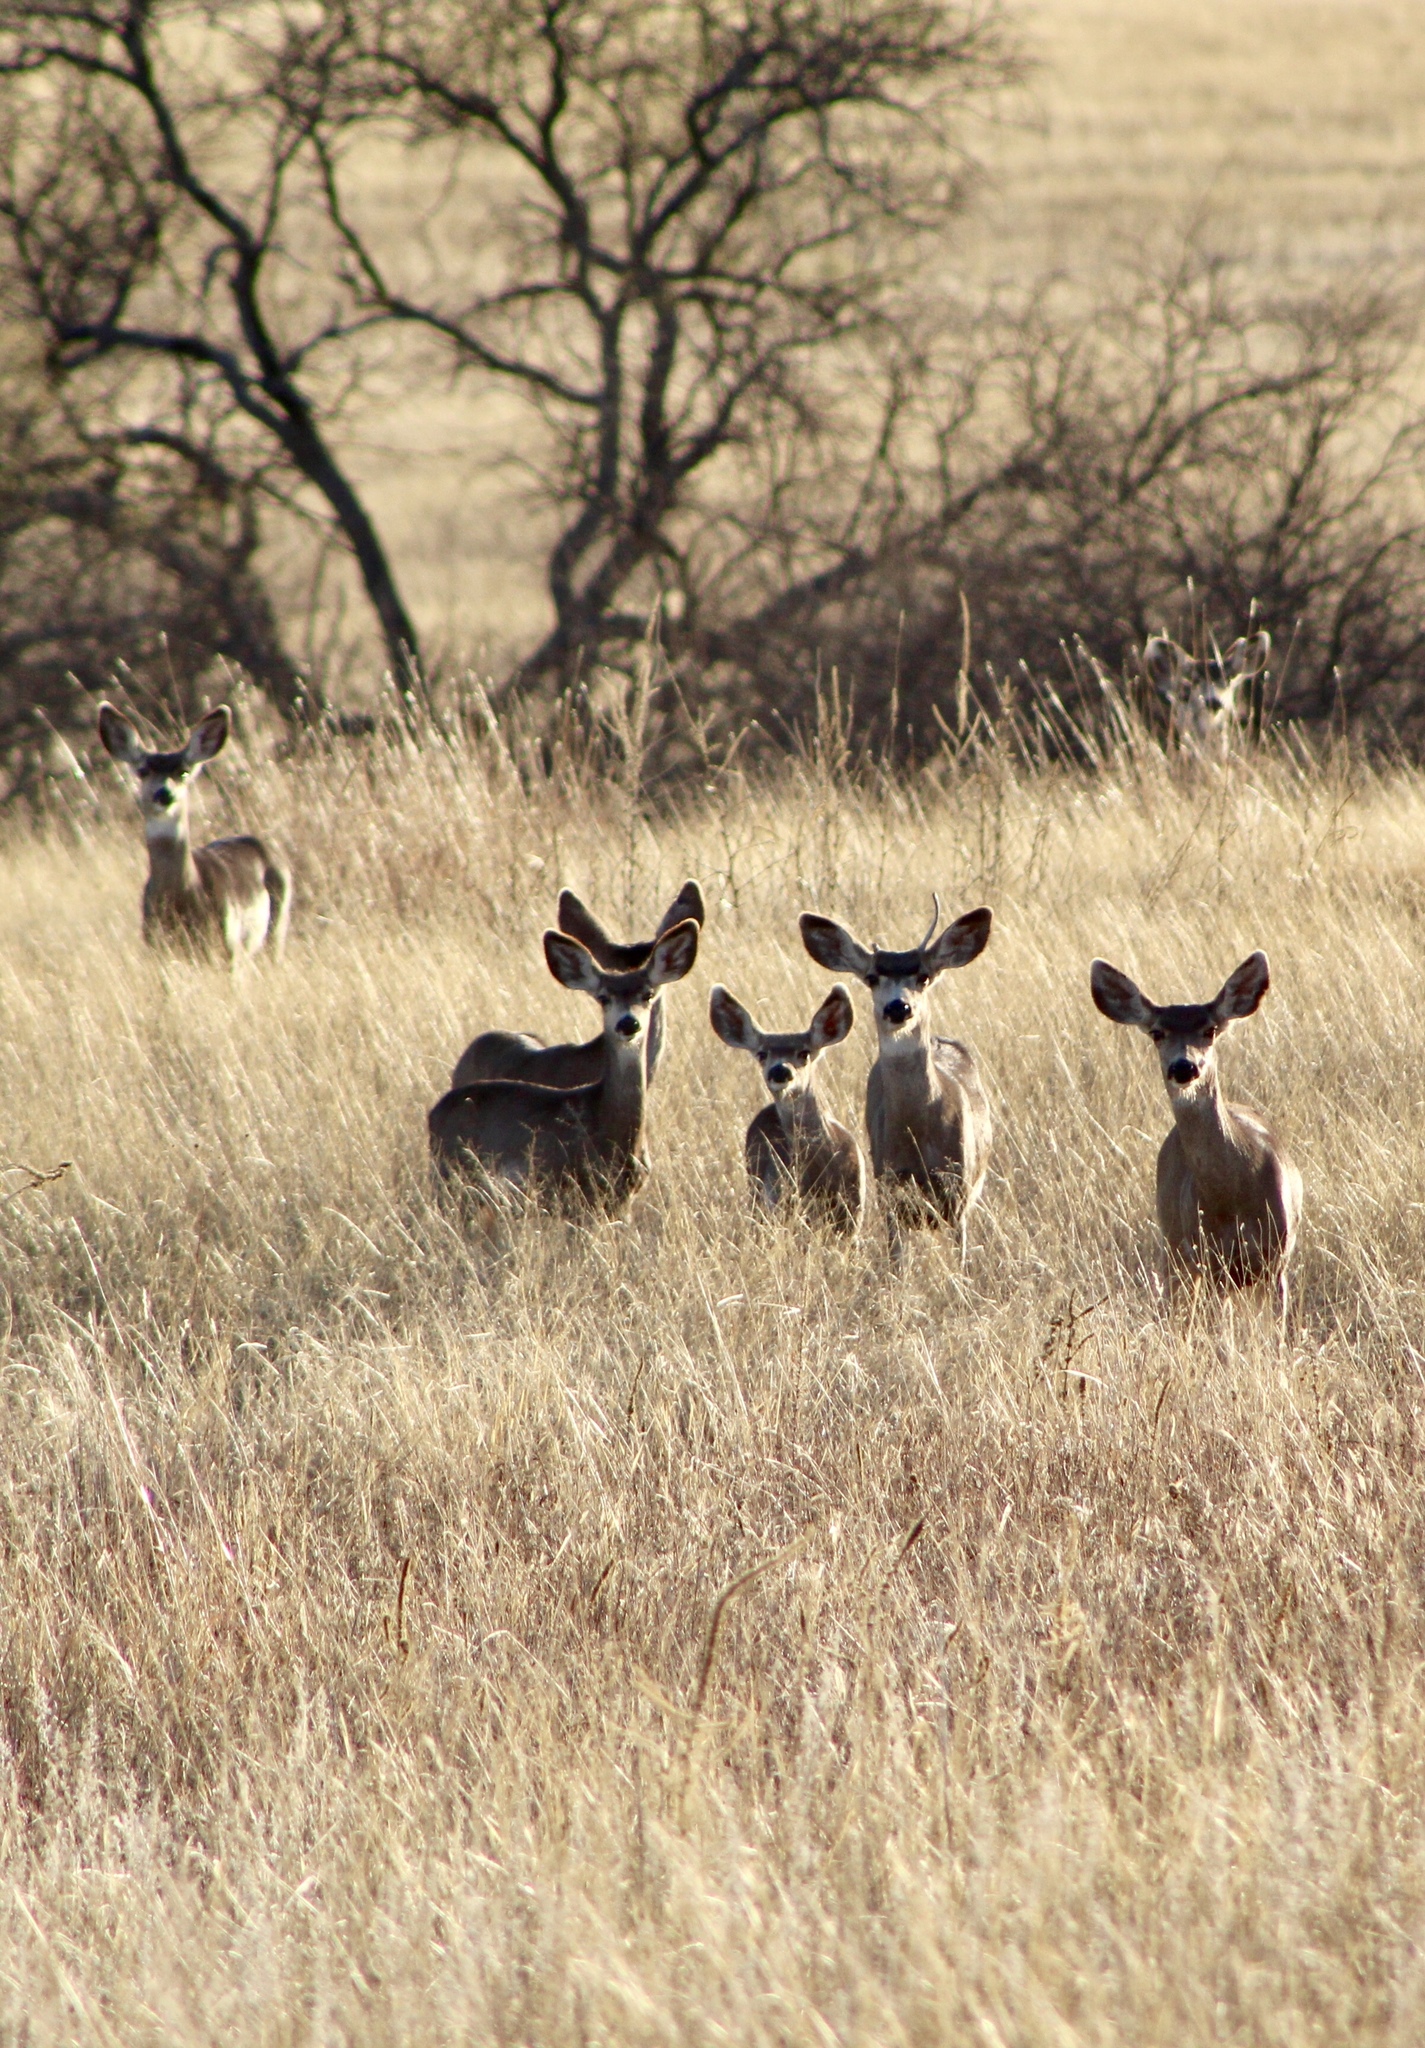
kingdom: Animalia
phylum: Chordata
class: Mammalia
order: Artiodactyla
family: Cervidae
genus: Odocoileus
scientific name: Odocoileus hemionus
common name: Mule deer
